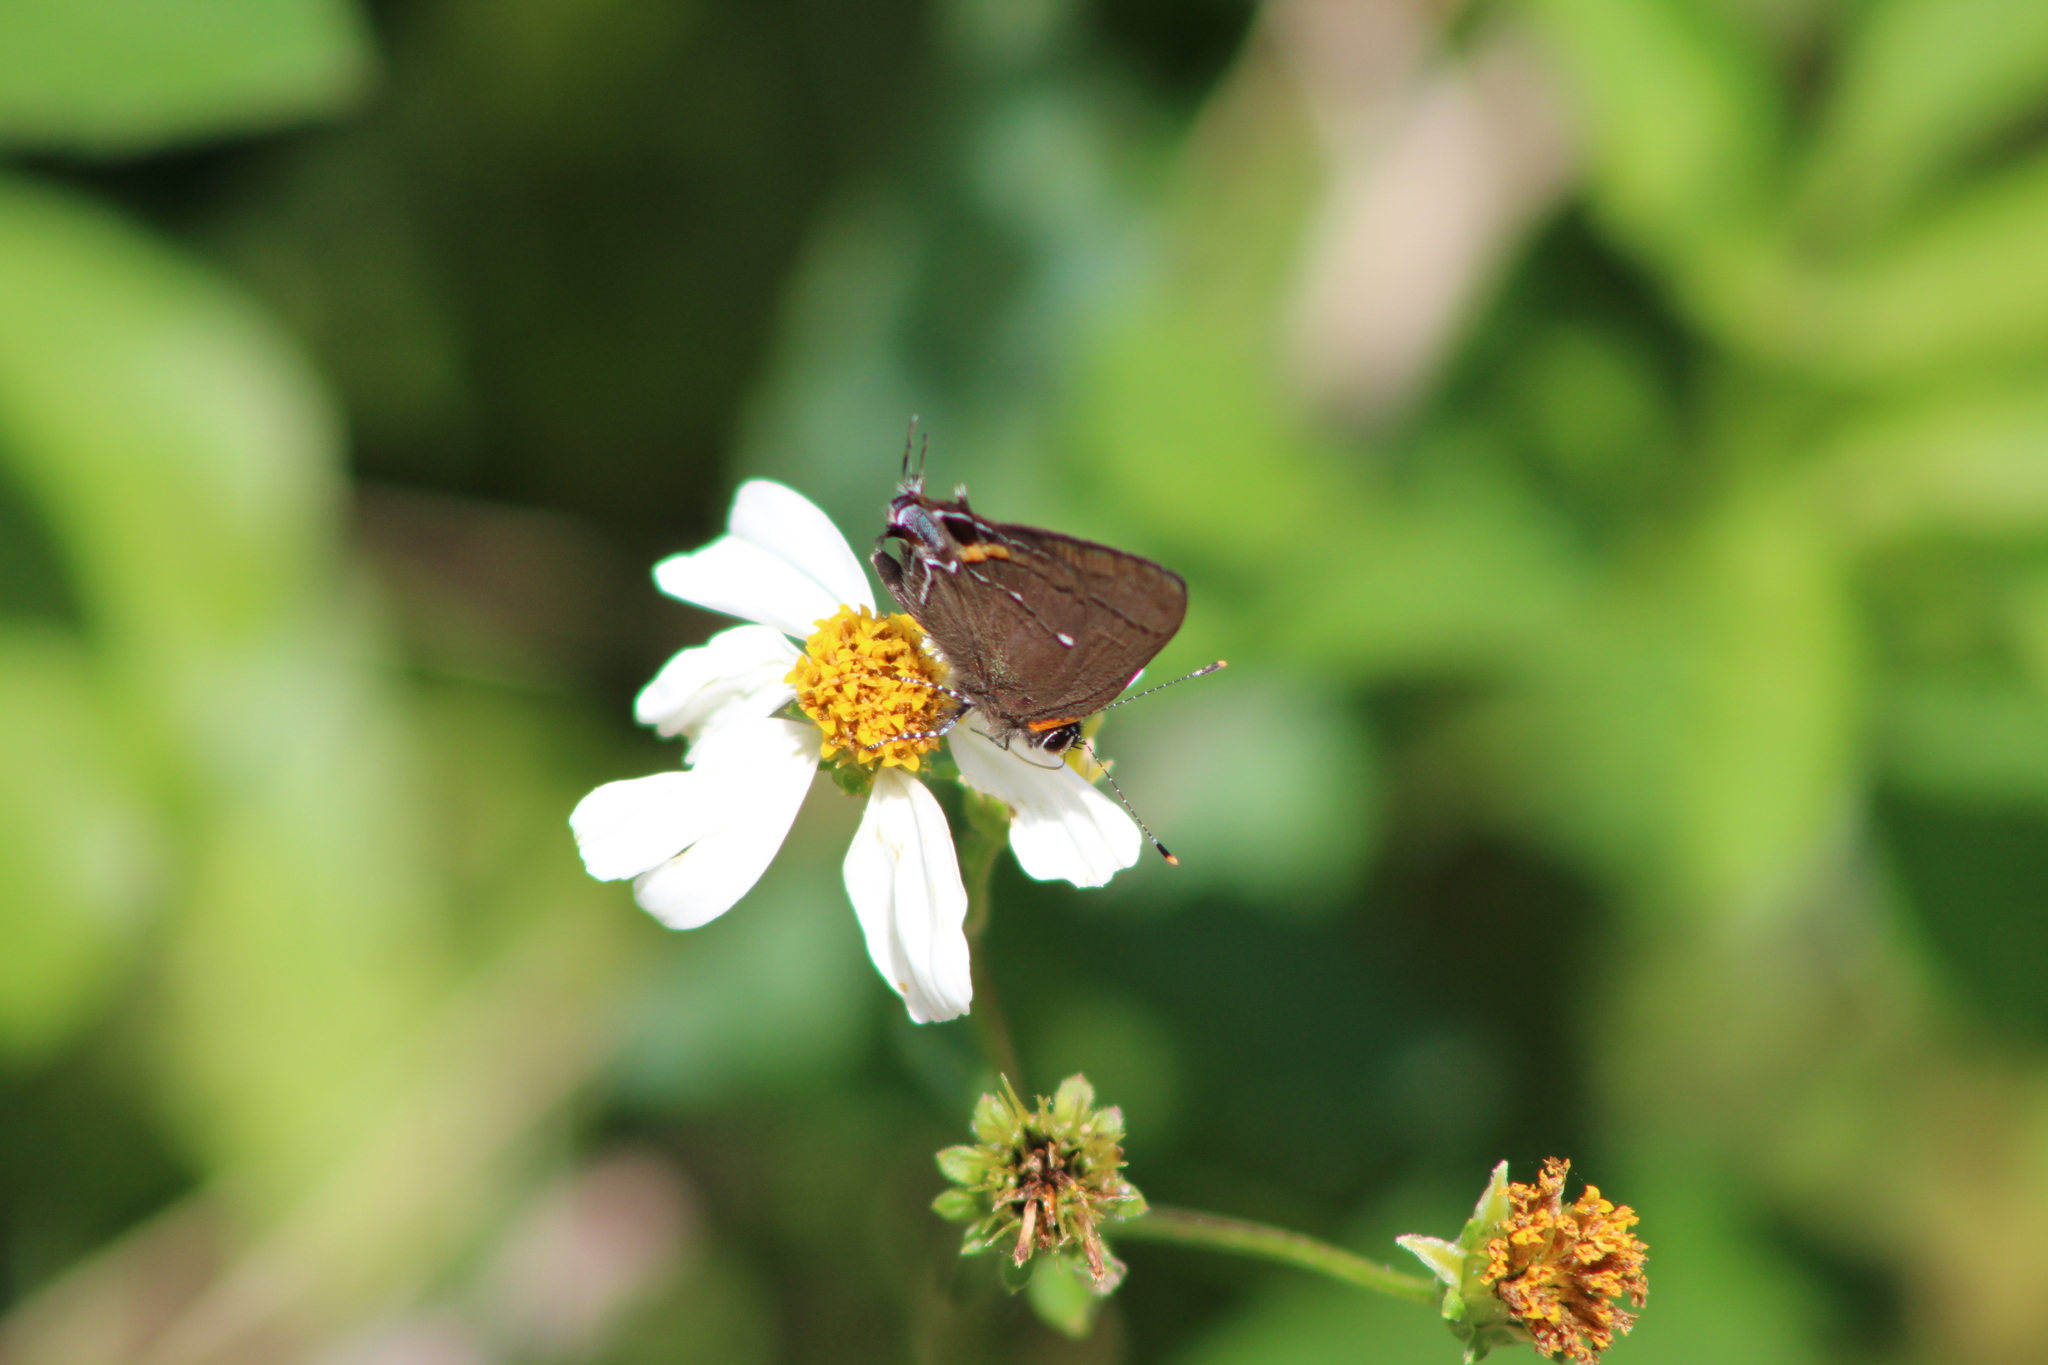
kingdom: Animalia
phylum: Arthropoda
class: Insecta
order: Lepidoptera
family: Lycaenidae
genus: Thecla
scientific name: Thecla angelia
